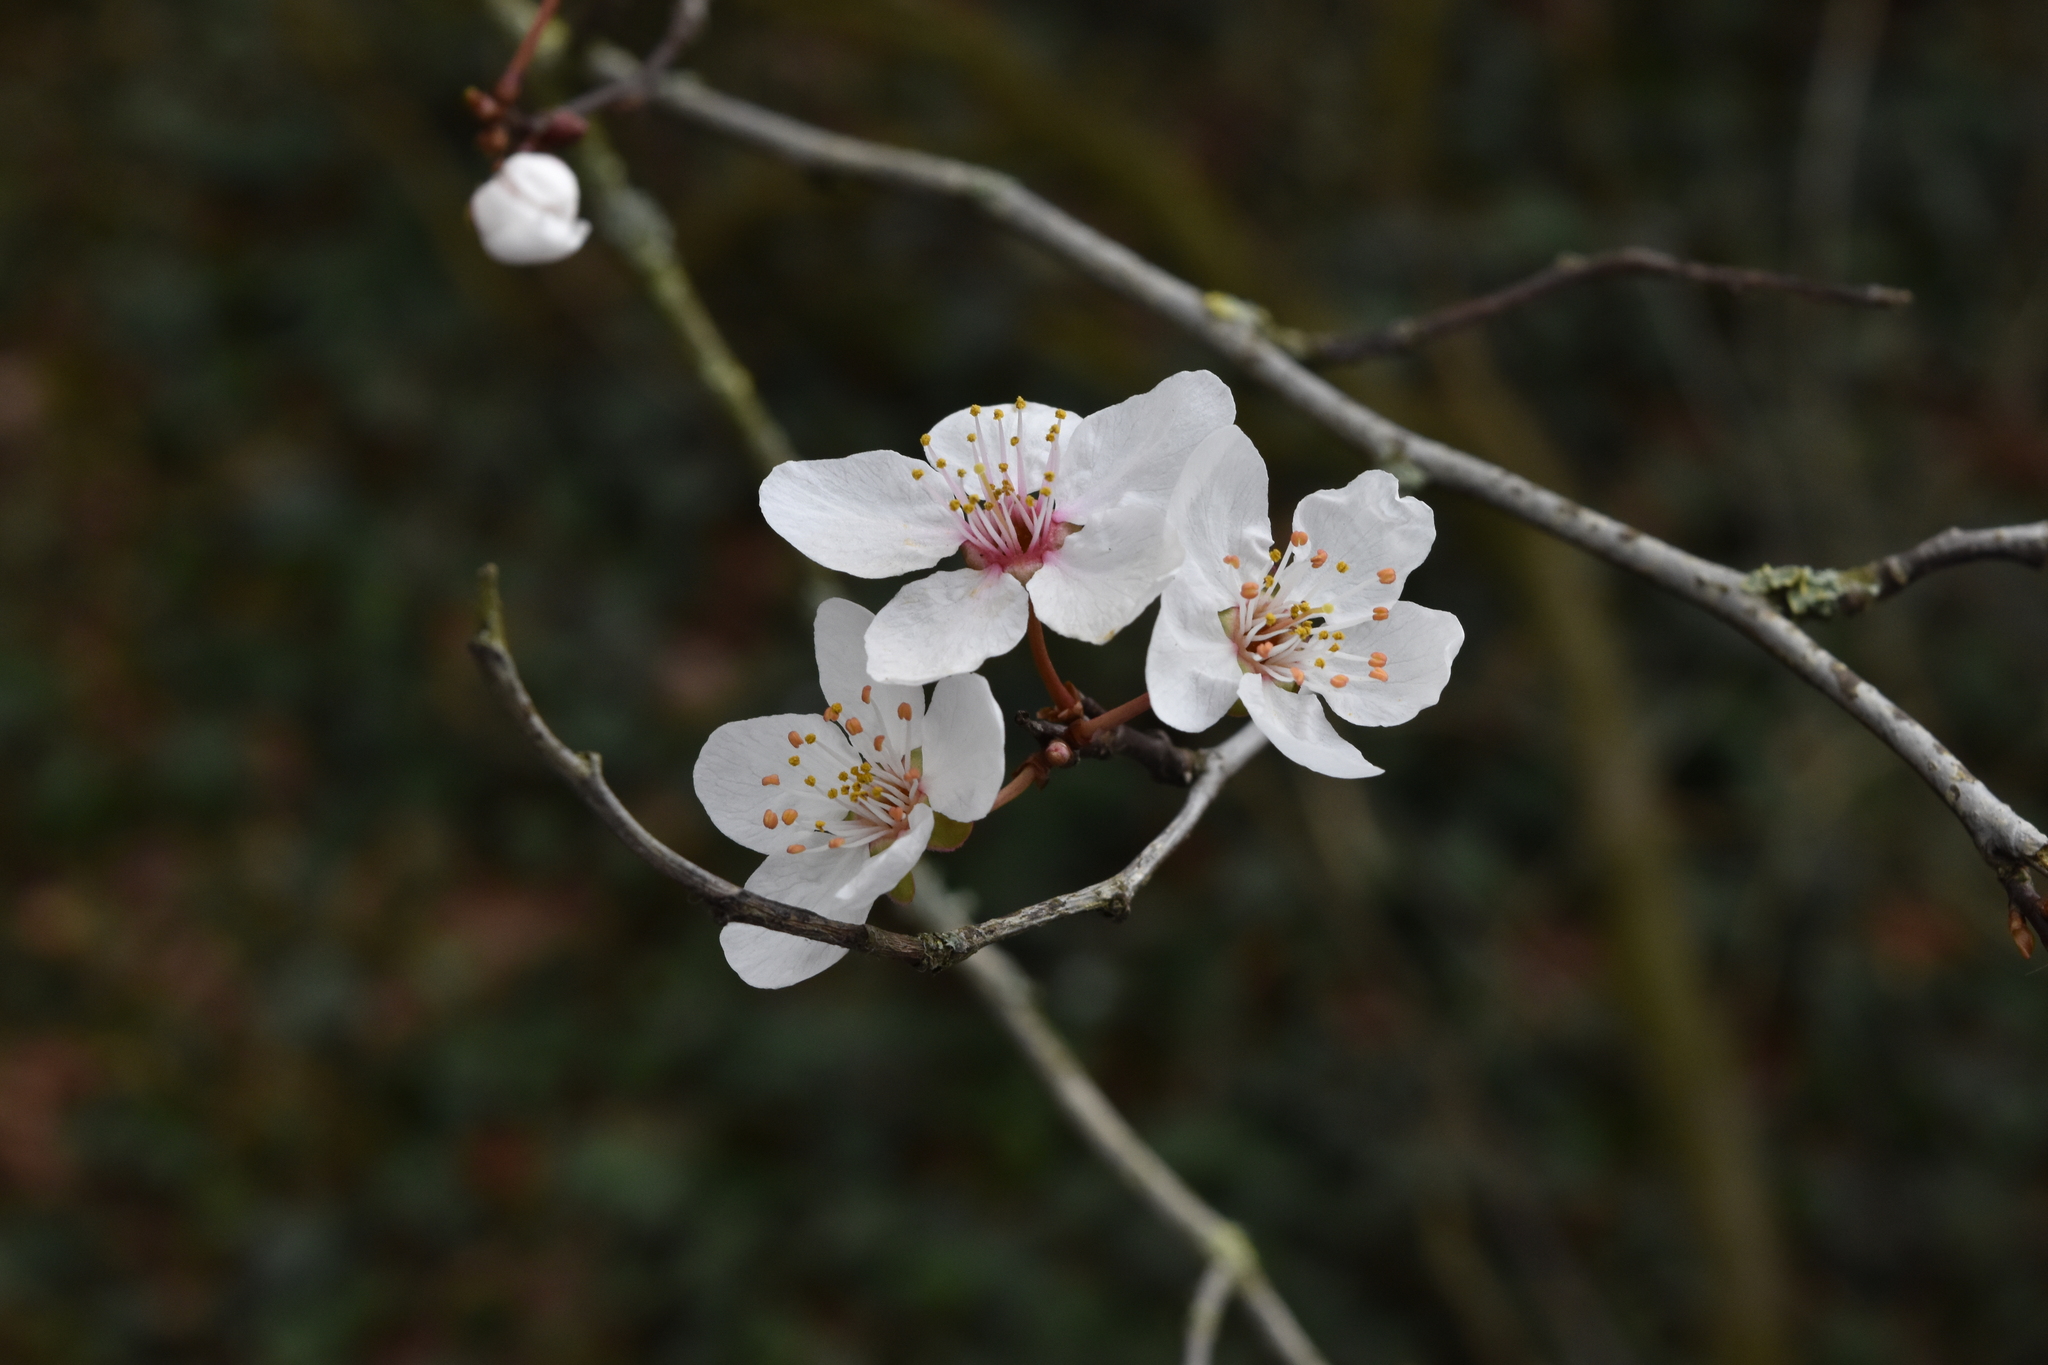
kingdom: Plantae
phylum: Tracheophyta
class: Magnoliopsida
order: Rosales
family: Rosaceae
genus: Prunus
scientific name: Prunus cerasifera
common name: Cherry plum
